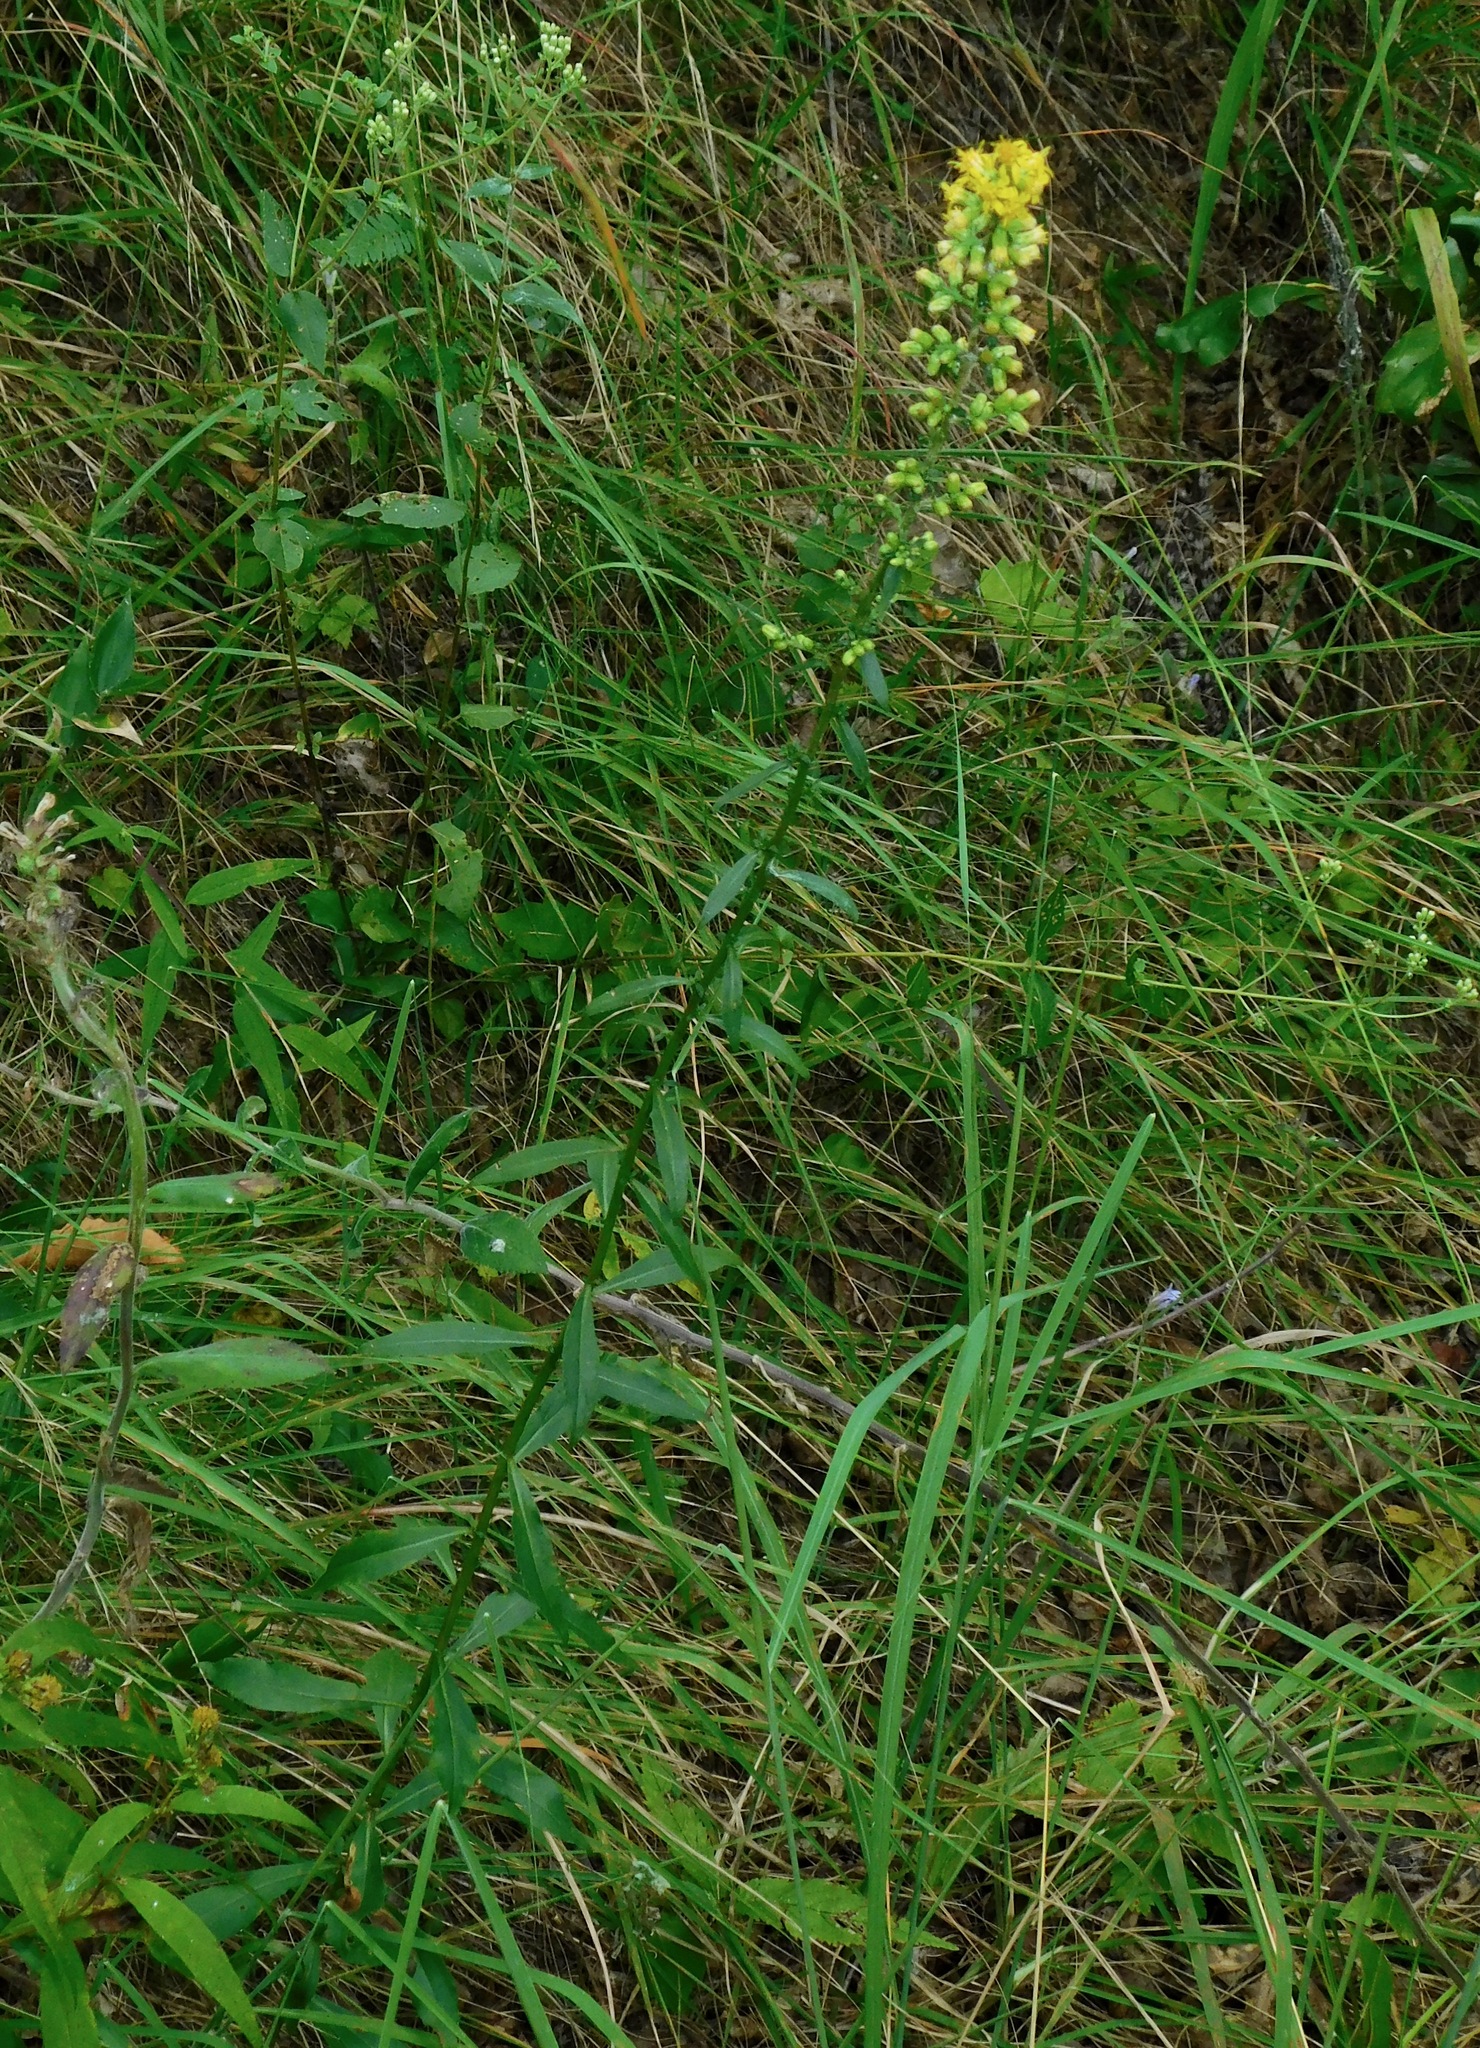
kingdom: Plantae
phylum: Tracheophyta
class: Magnoliopsida
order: Asterales
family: Asteraceae
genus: Solidago
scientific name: Solidago erecta
